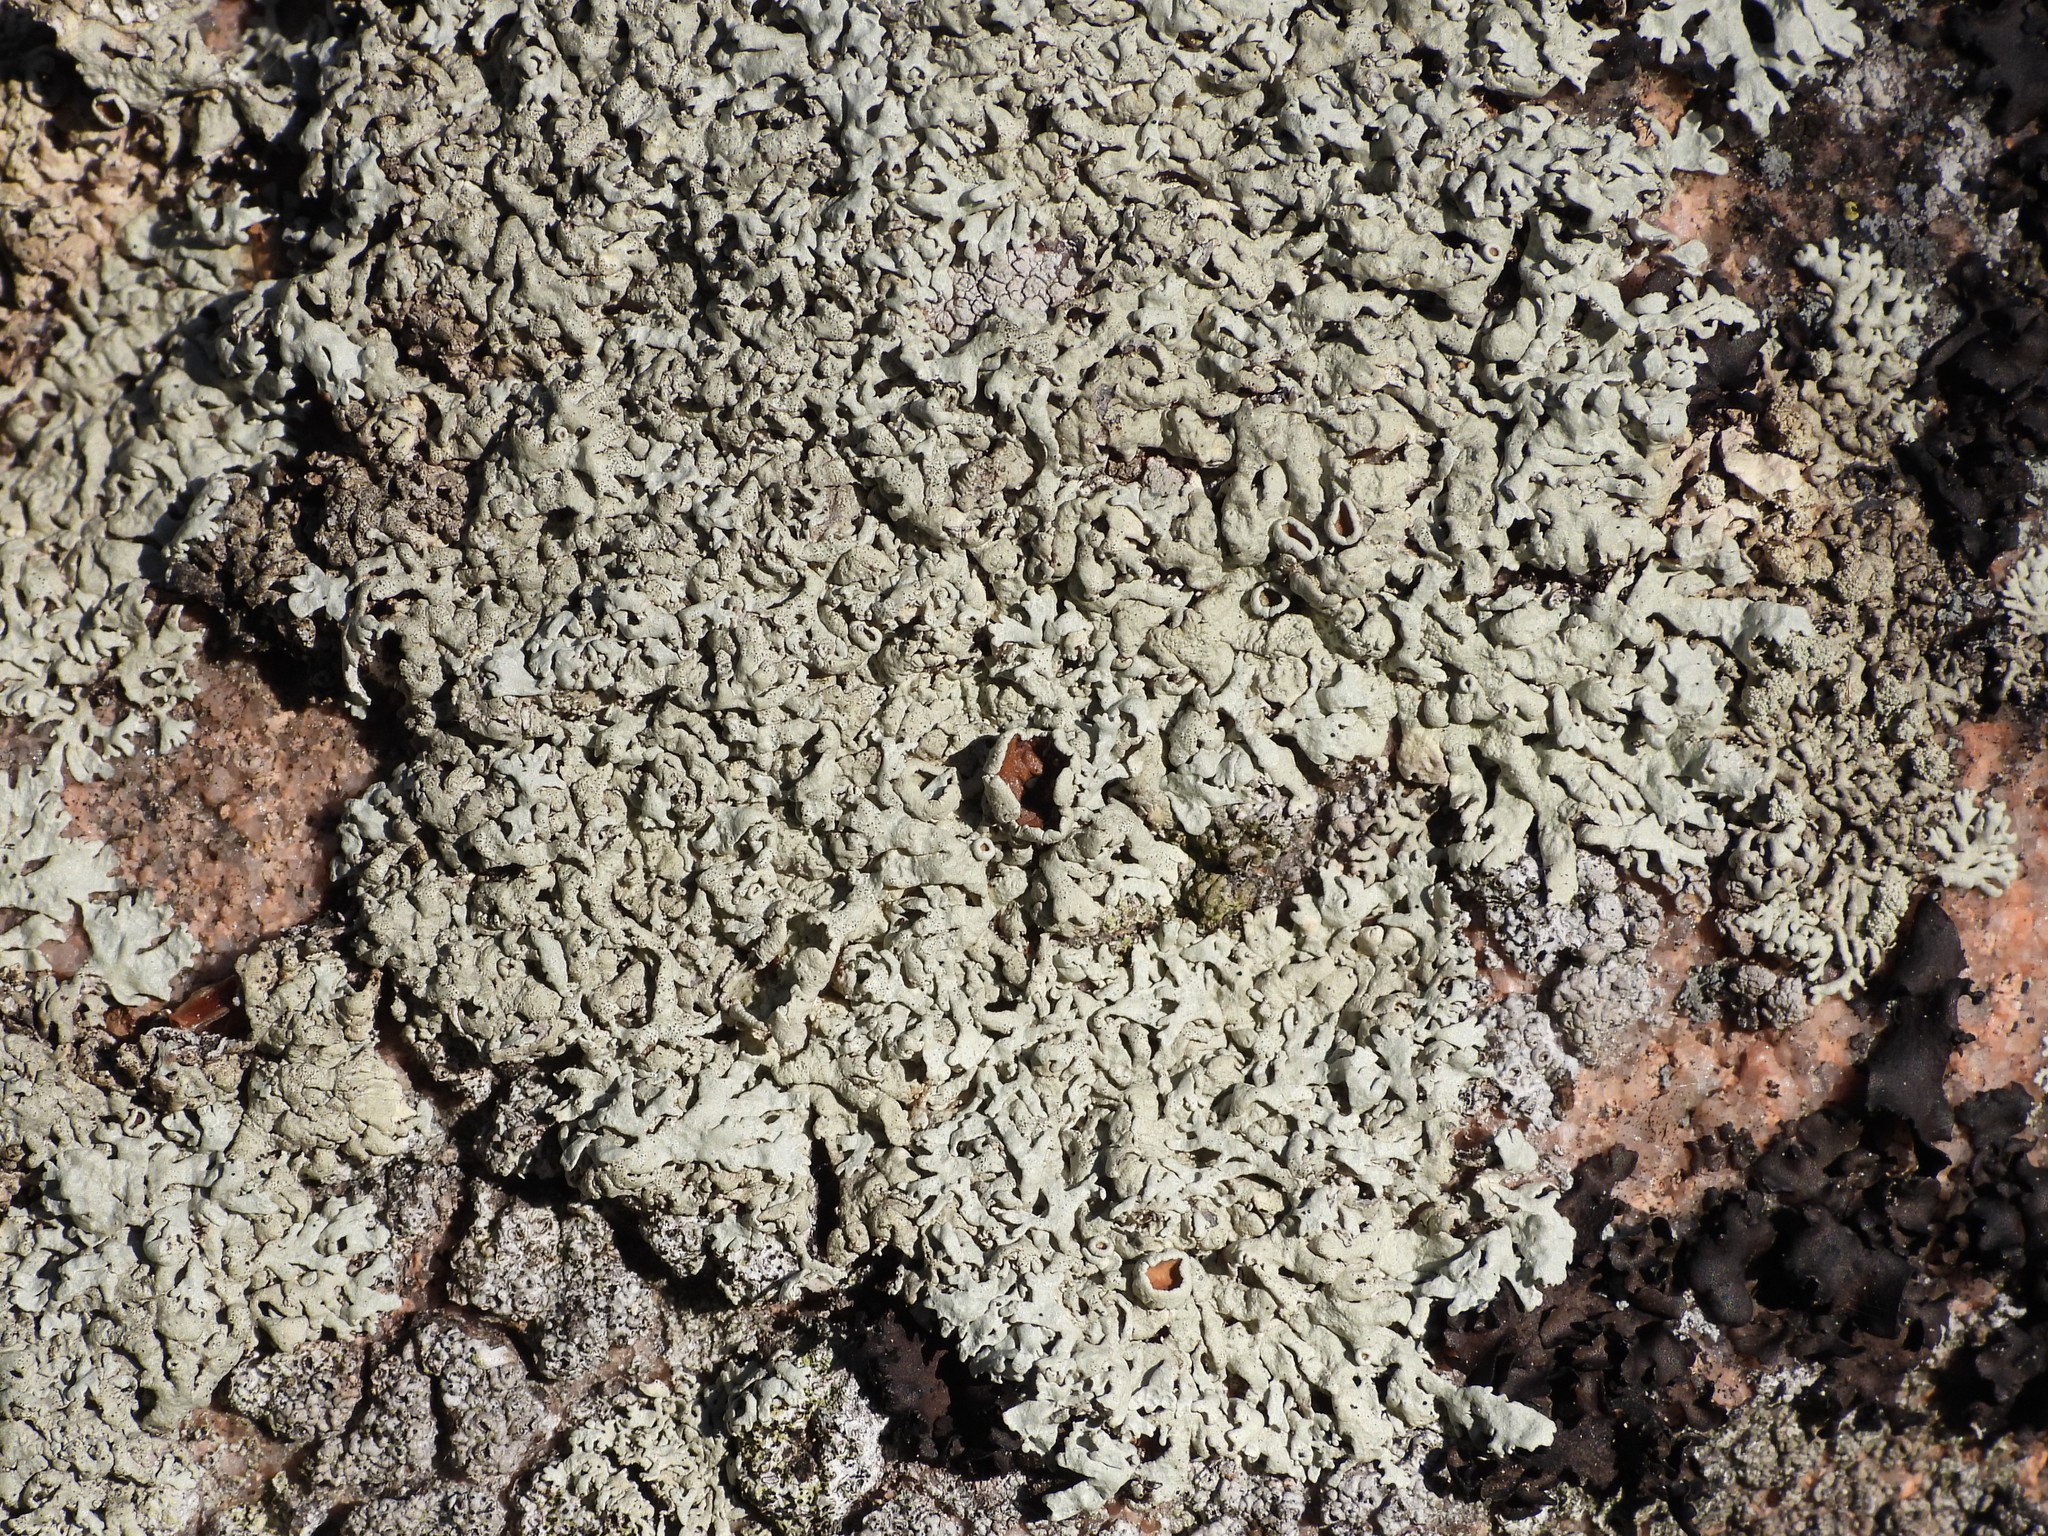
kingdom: Fungi
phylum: Ascomycota
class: Lecanoromycetes
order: Lecanorales
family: Parmeliaceae
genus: Arctoparmelia
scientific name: Arctoparmelia centrifuga
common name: Concentric ring lichen
